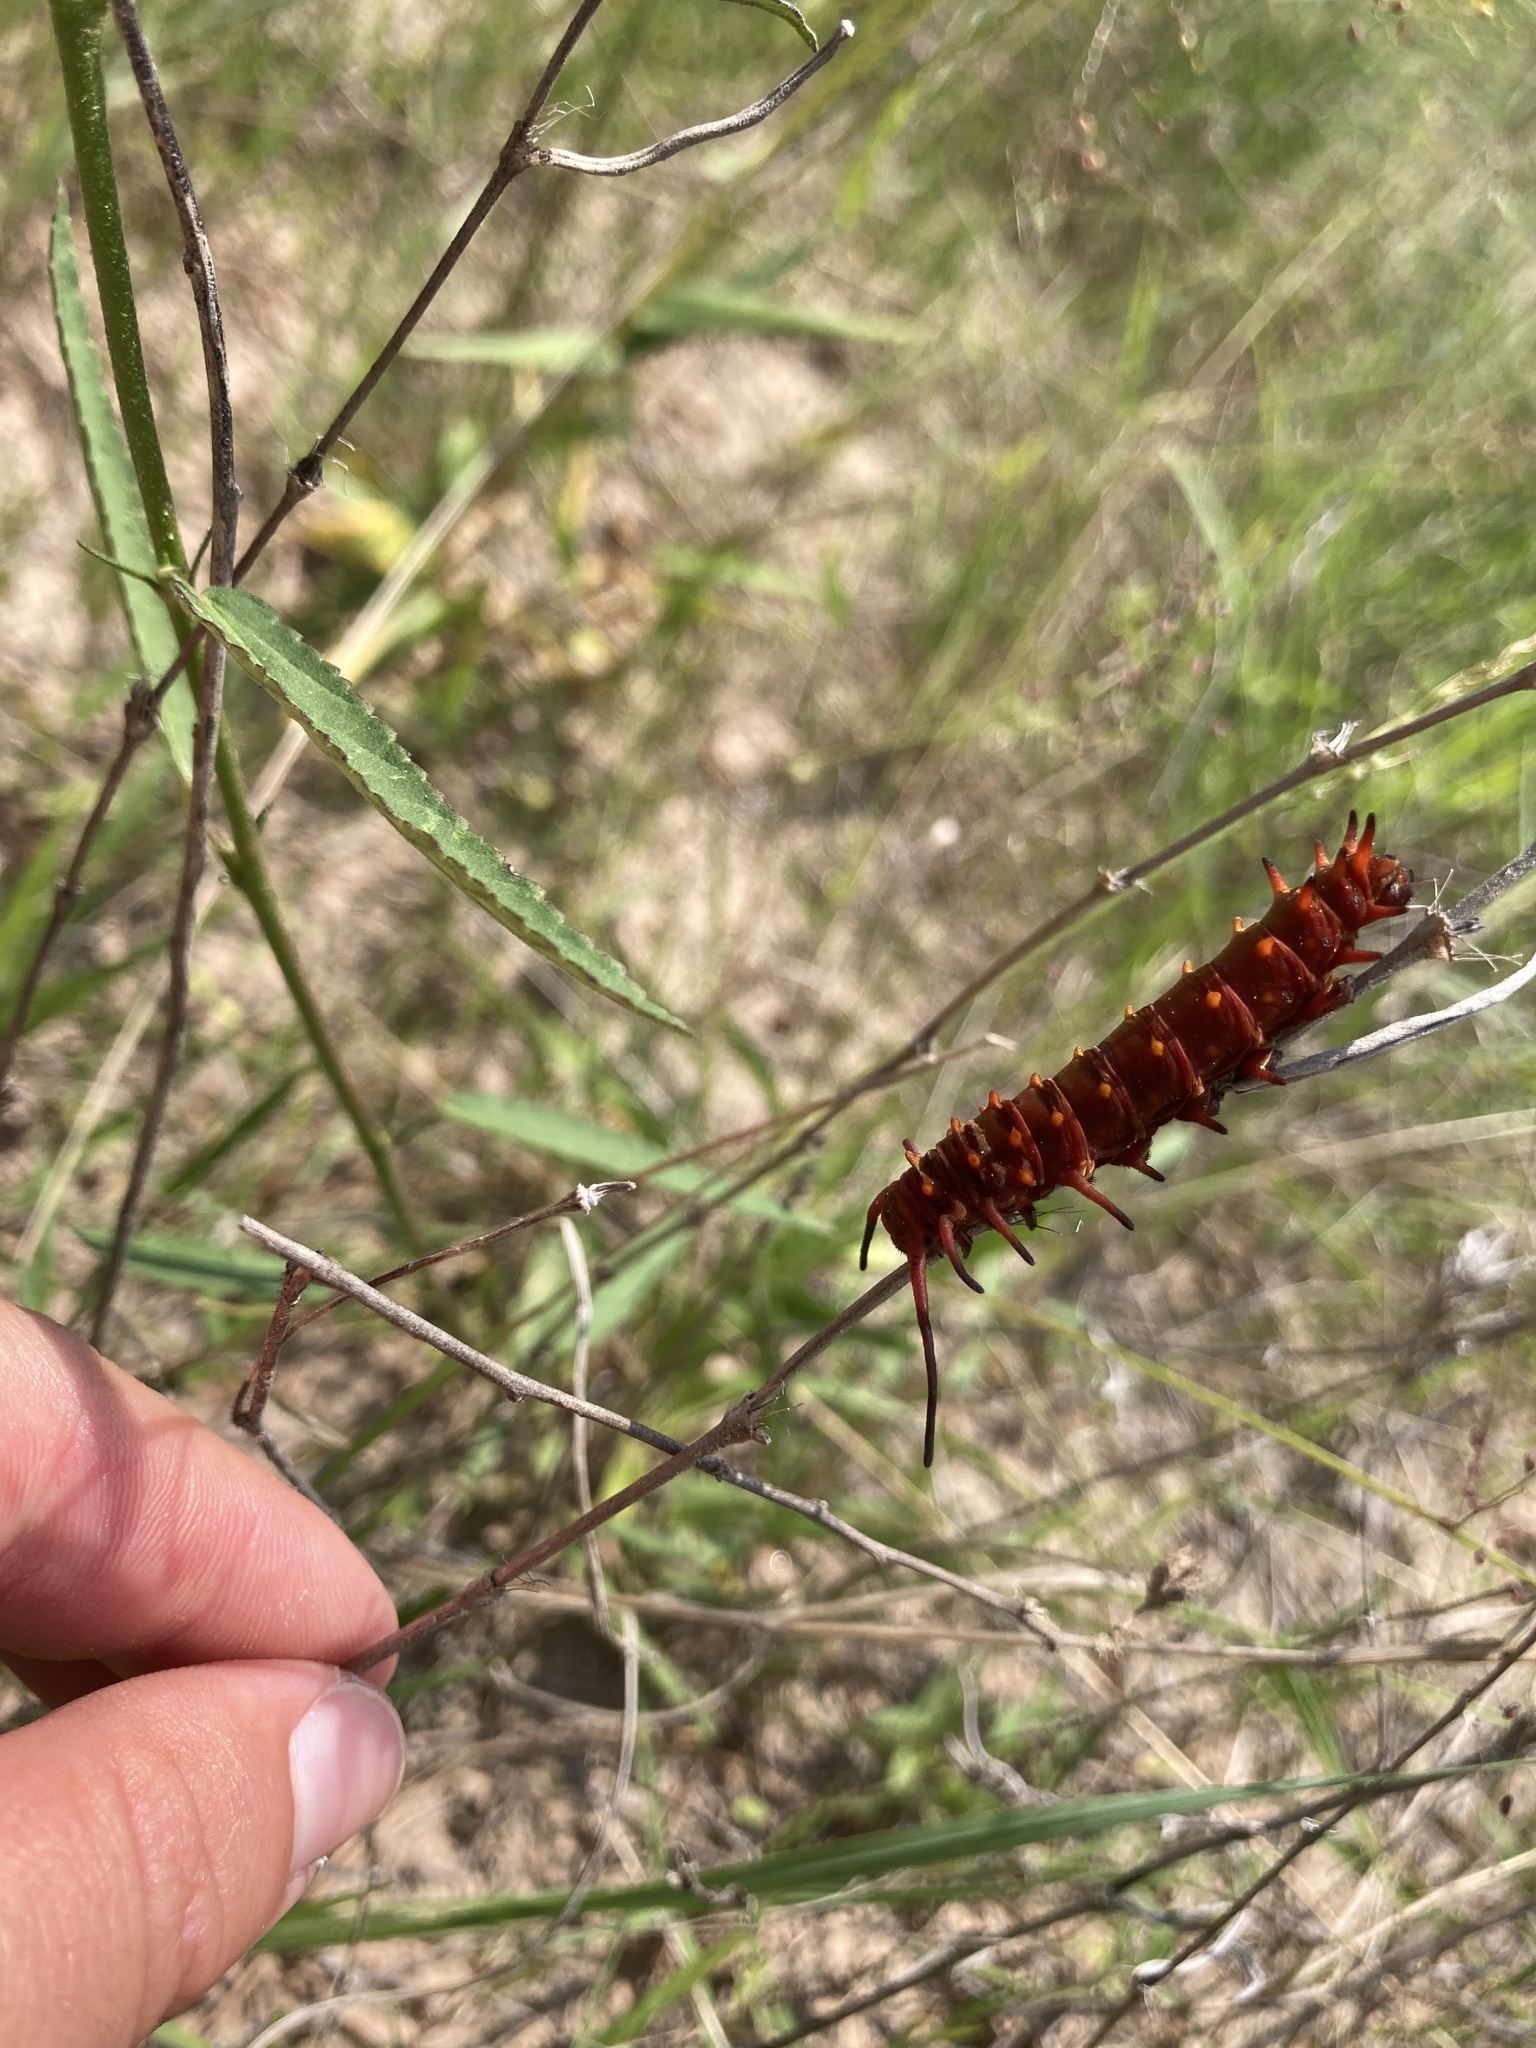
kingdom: Animalia
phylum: Arthropoda
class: Insecta
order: Lepidoptera
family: Papilionidae
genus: Battus
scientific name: Battus philenor
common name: Pipevine swallowtail
